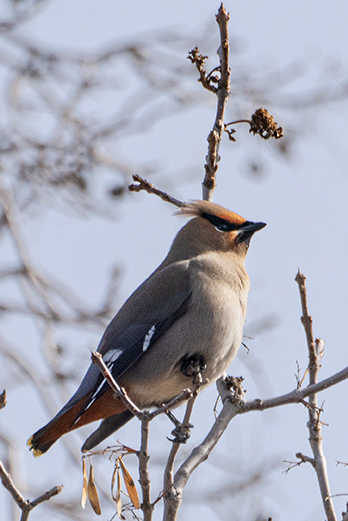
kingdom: Animalia
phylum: Chordata
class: Aves
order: Passeriformes
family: Bombycillidae
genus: Bombycilla
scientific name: Bombycilla garrulus
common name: Bohemian waxwing
